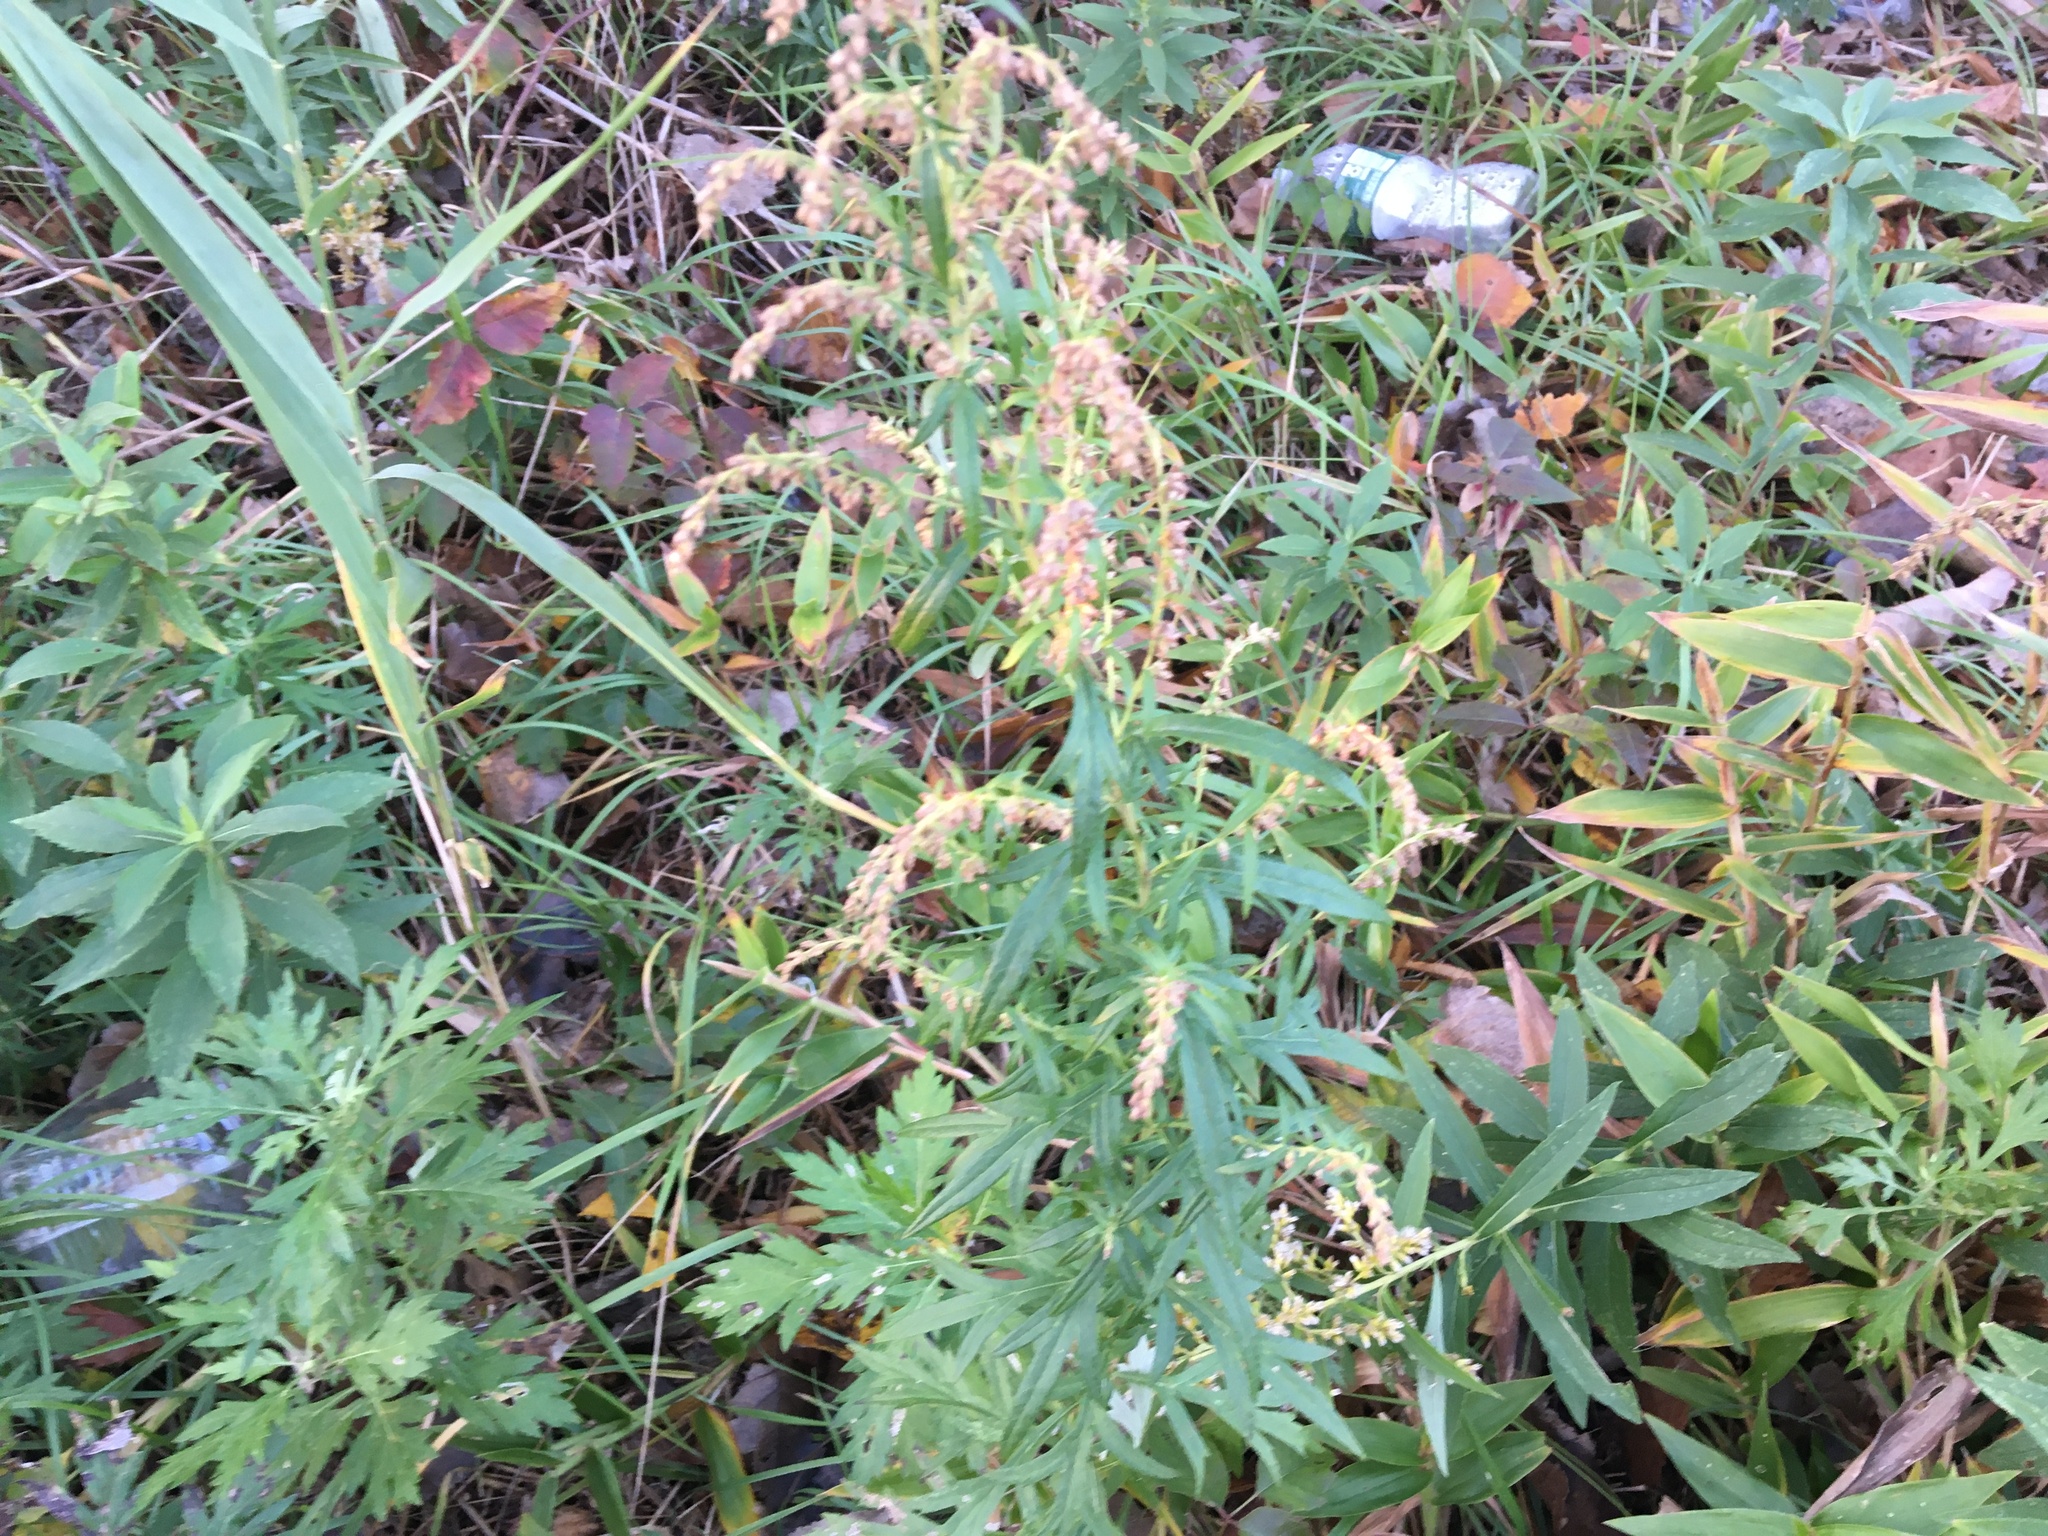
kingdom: Plantae
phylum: Tracheophyta
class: Magnoliopsida
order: Asterales
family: Asteraceae
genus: Artemisia
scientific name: Artemisia vulgaris
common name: Mugwort
